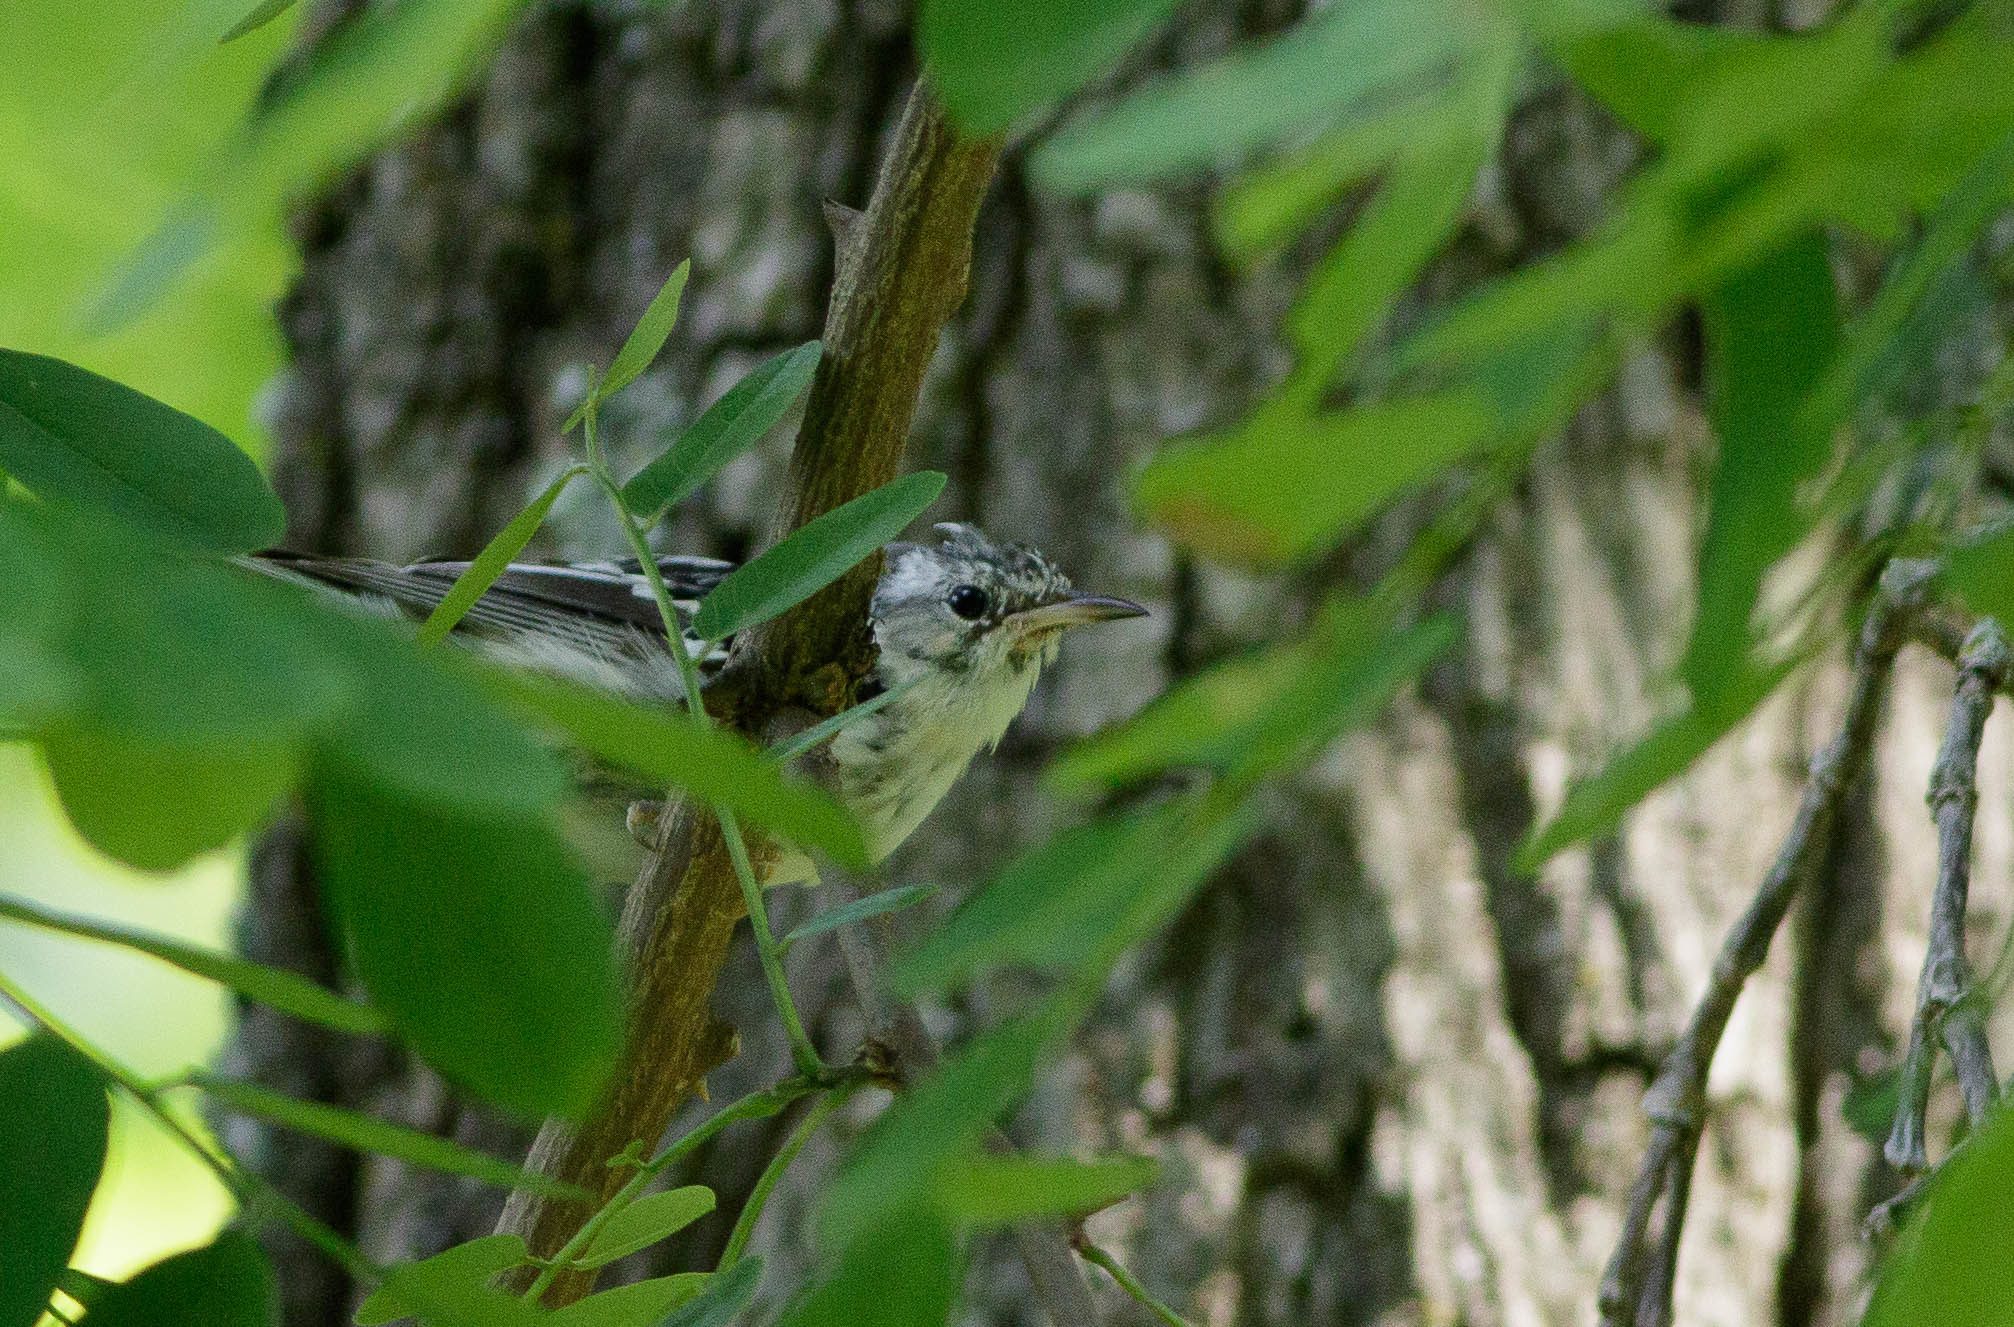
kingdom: Animalia
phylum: Chordata
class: Aves
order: Passeriformes
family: Parulidae
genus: Mniotilta
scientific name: Mniotilta varia
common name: Black-and-white warbler
